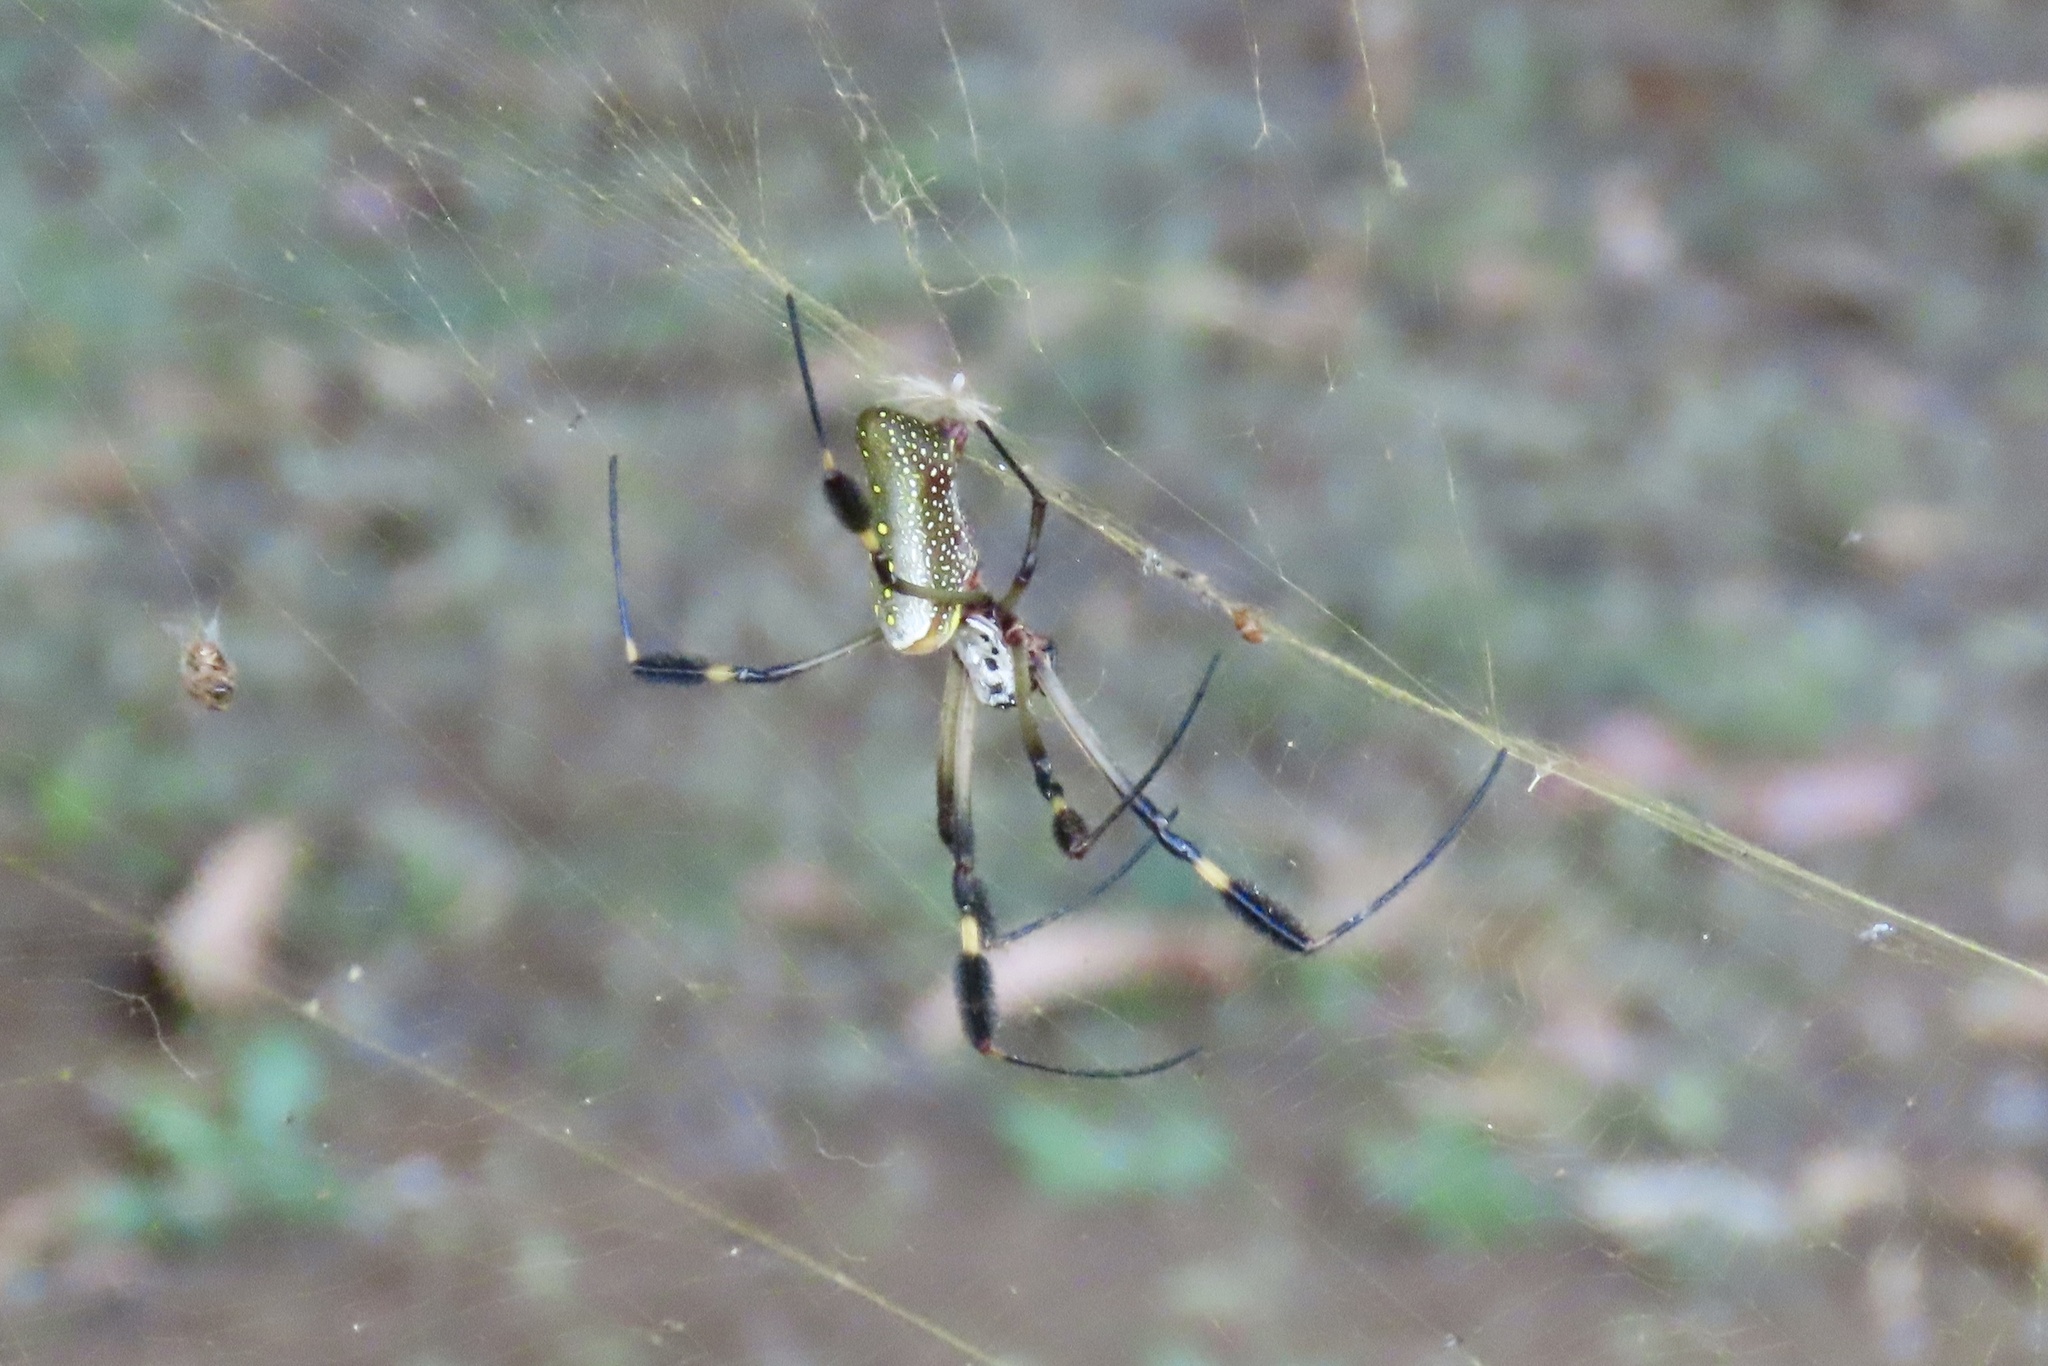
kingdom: Animalia
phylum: Arthropoda
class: Arachnida
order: Araneae
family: Araneidae
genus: Trichonephila
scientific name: Trichonephila clavipes
